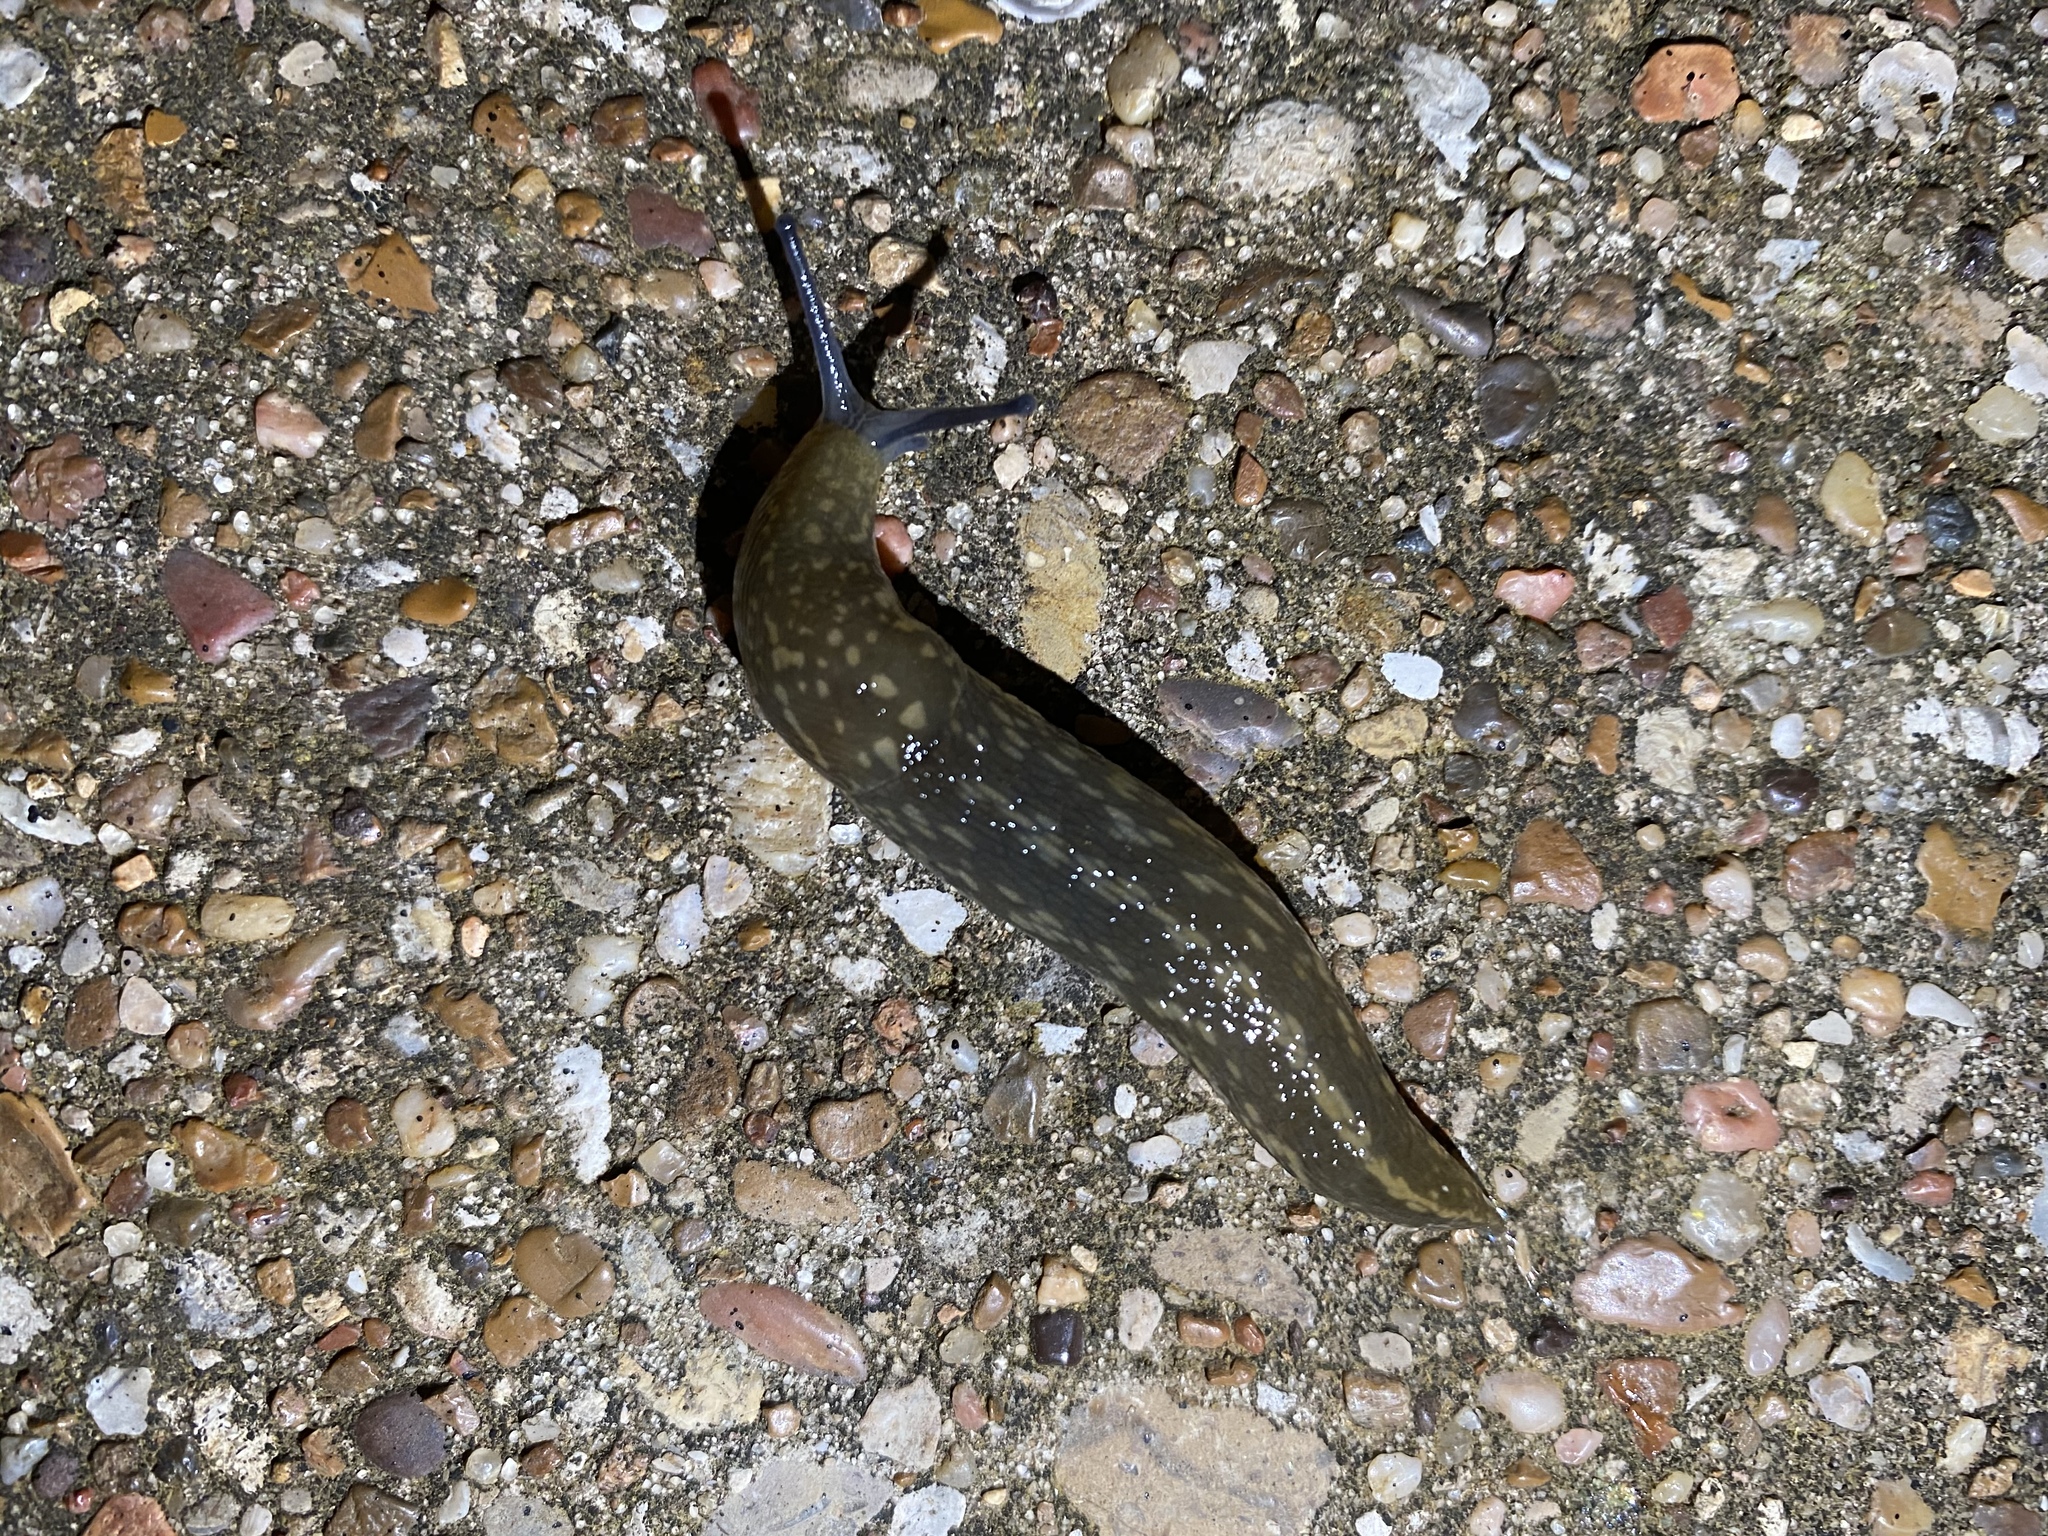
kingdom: Animalia
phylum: Mollusca
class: Gastropoda
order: Stylommatophora
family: Limacidae
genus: Limacus
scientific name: Limacus flavus
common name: Yellow gardenslug
